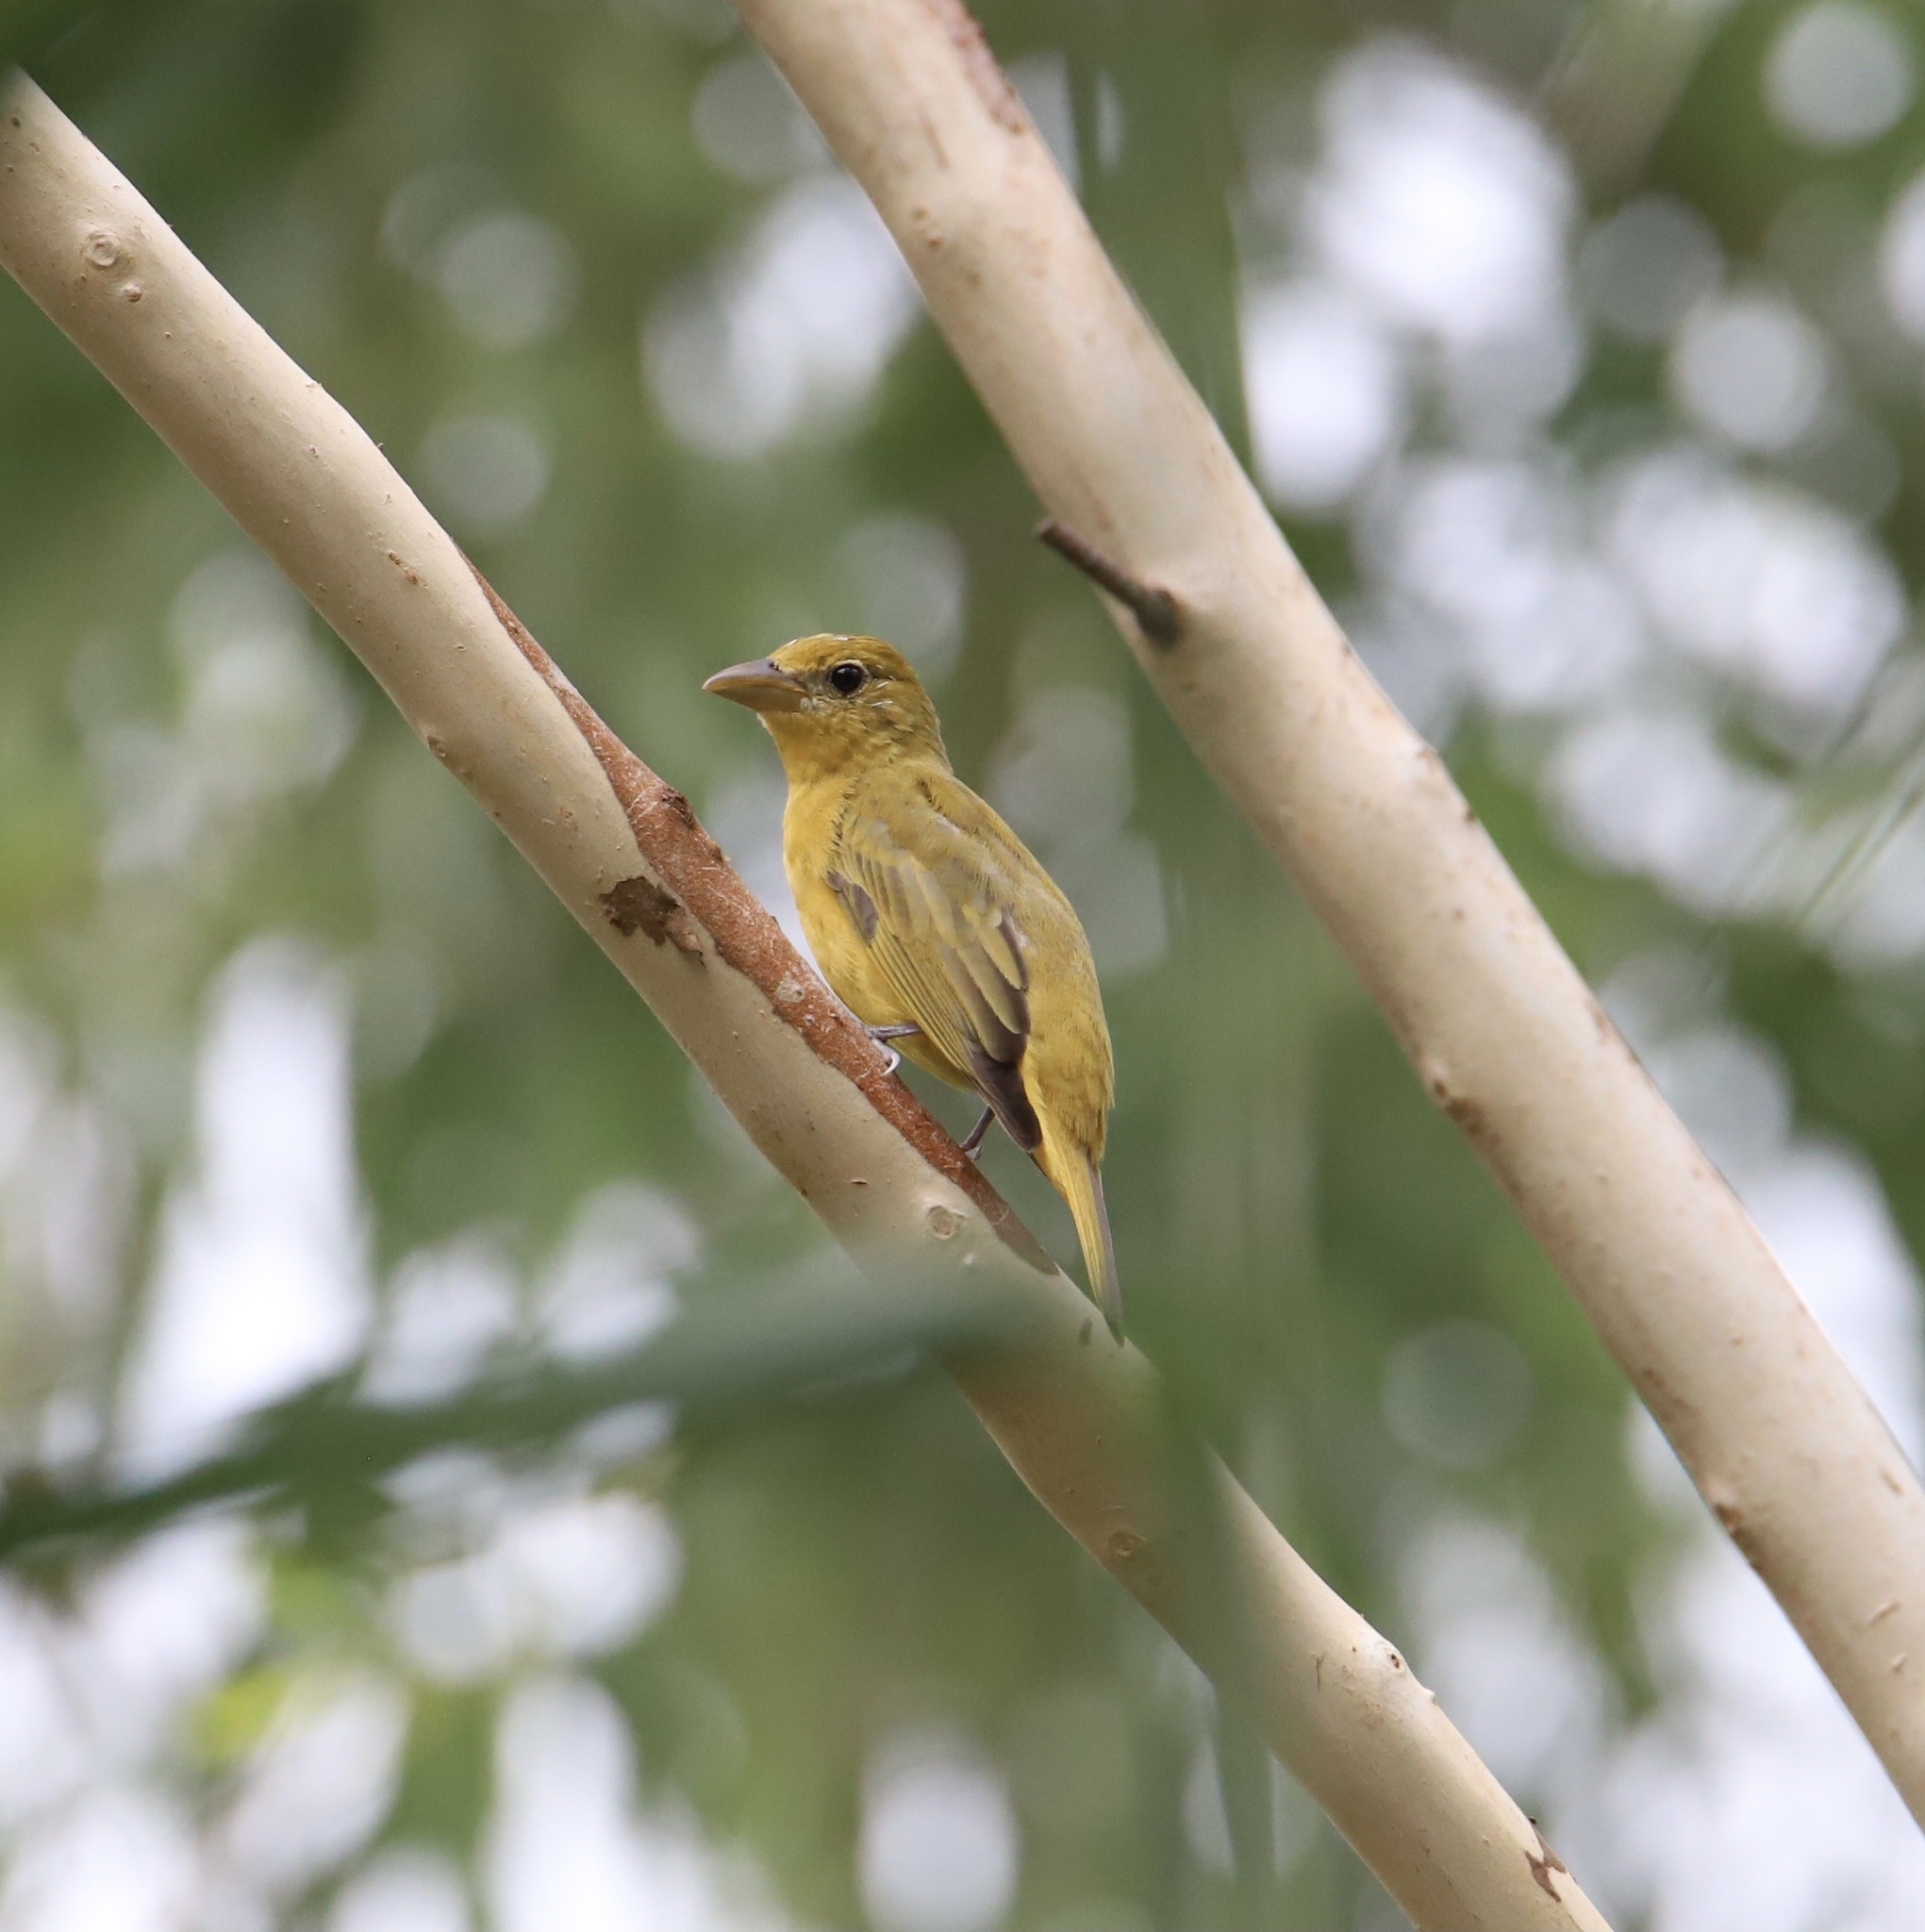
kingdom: Animalia
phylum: Chordata
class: Aves
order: Passeriformes
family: Cardinalidae
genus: Piranga
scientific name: Piranga rubra
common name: Summer tanager
